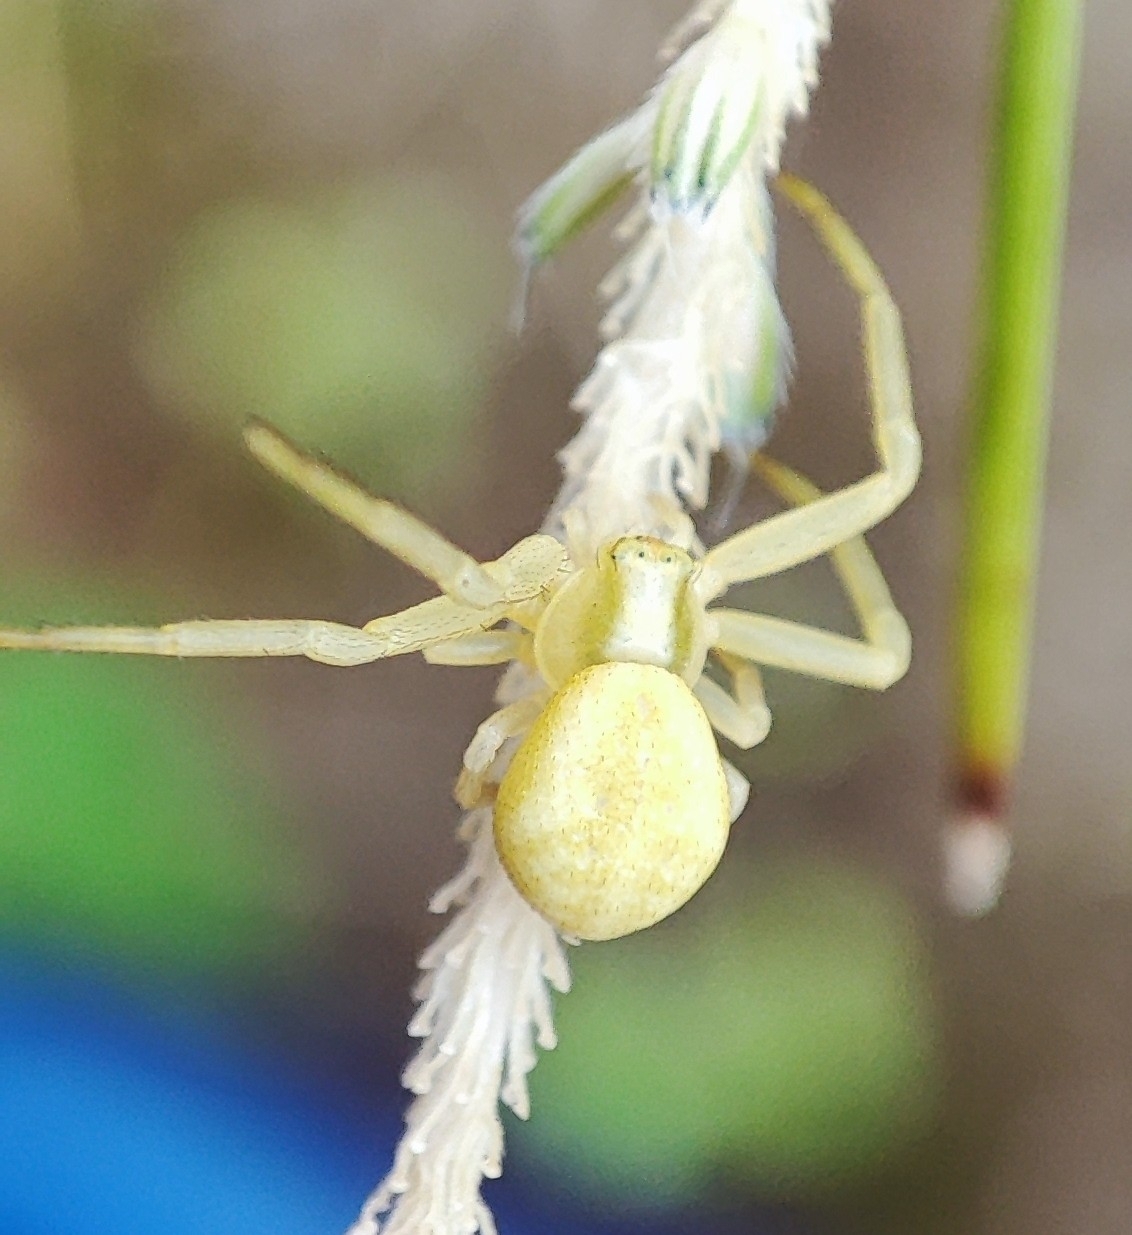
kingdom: Animalia
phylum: Arthropoda
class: Arachnida
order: Araneae
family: Thomisidae
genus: Misumena
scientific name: Misumena vatia
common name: Goldenrod crab spider
